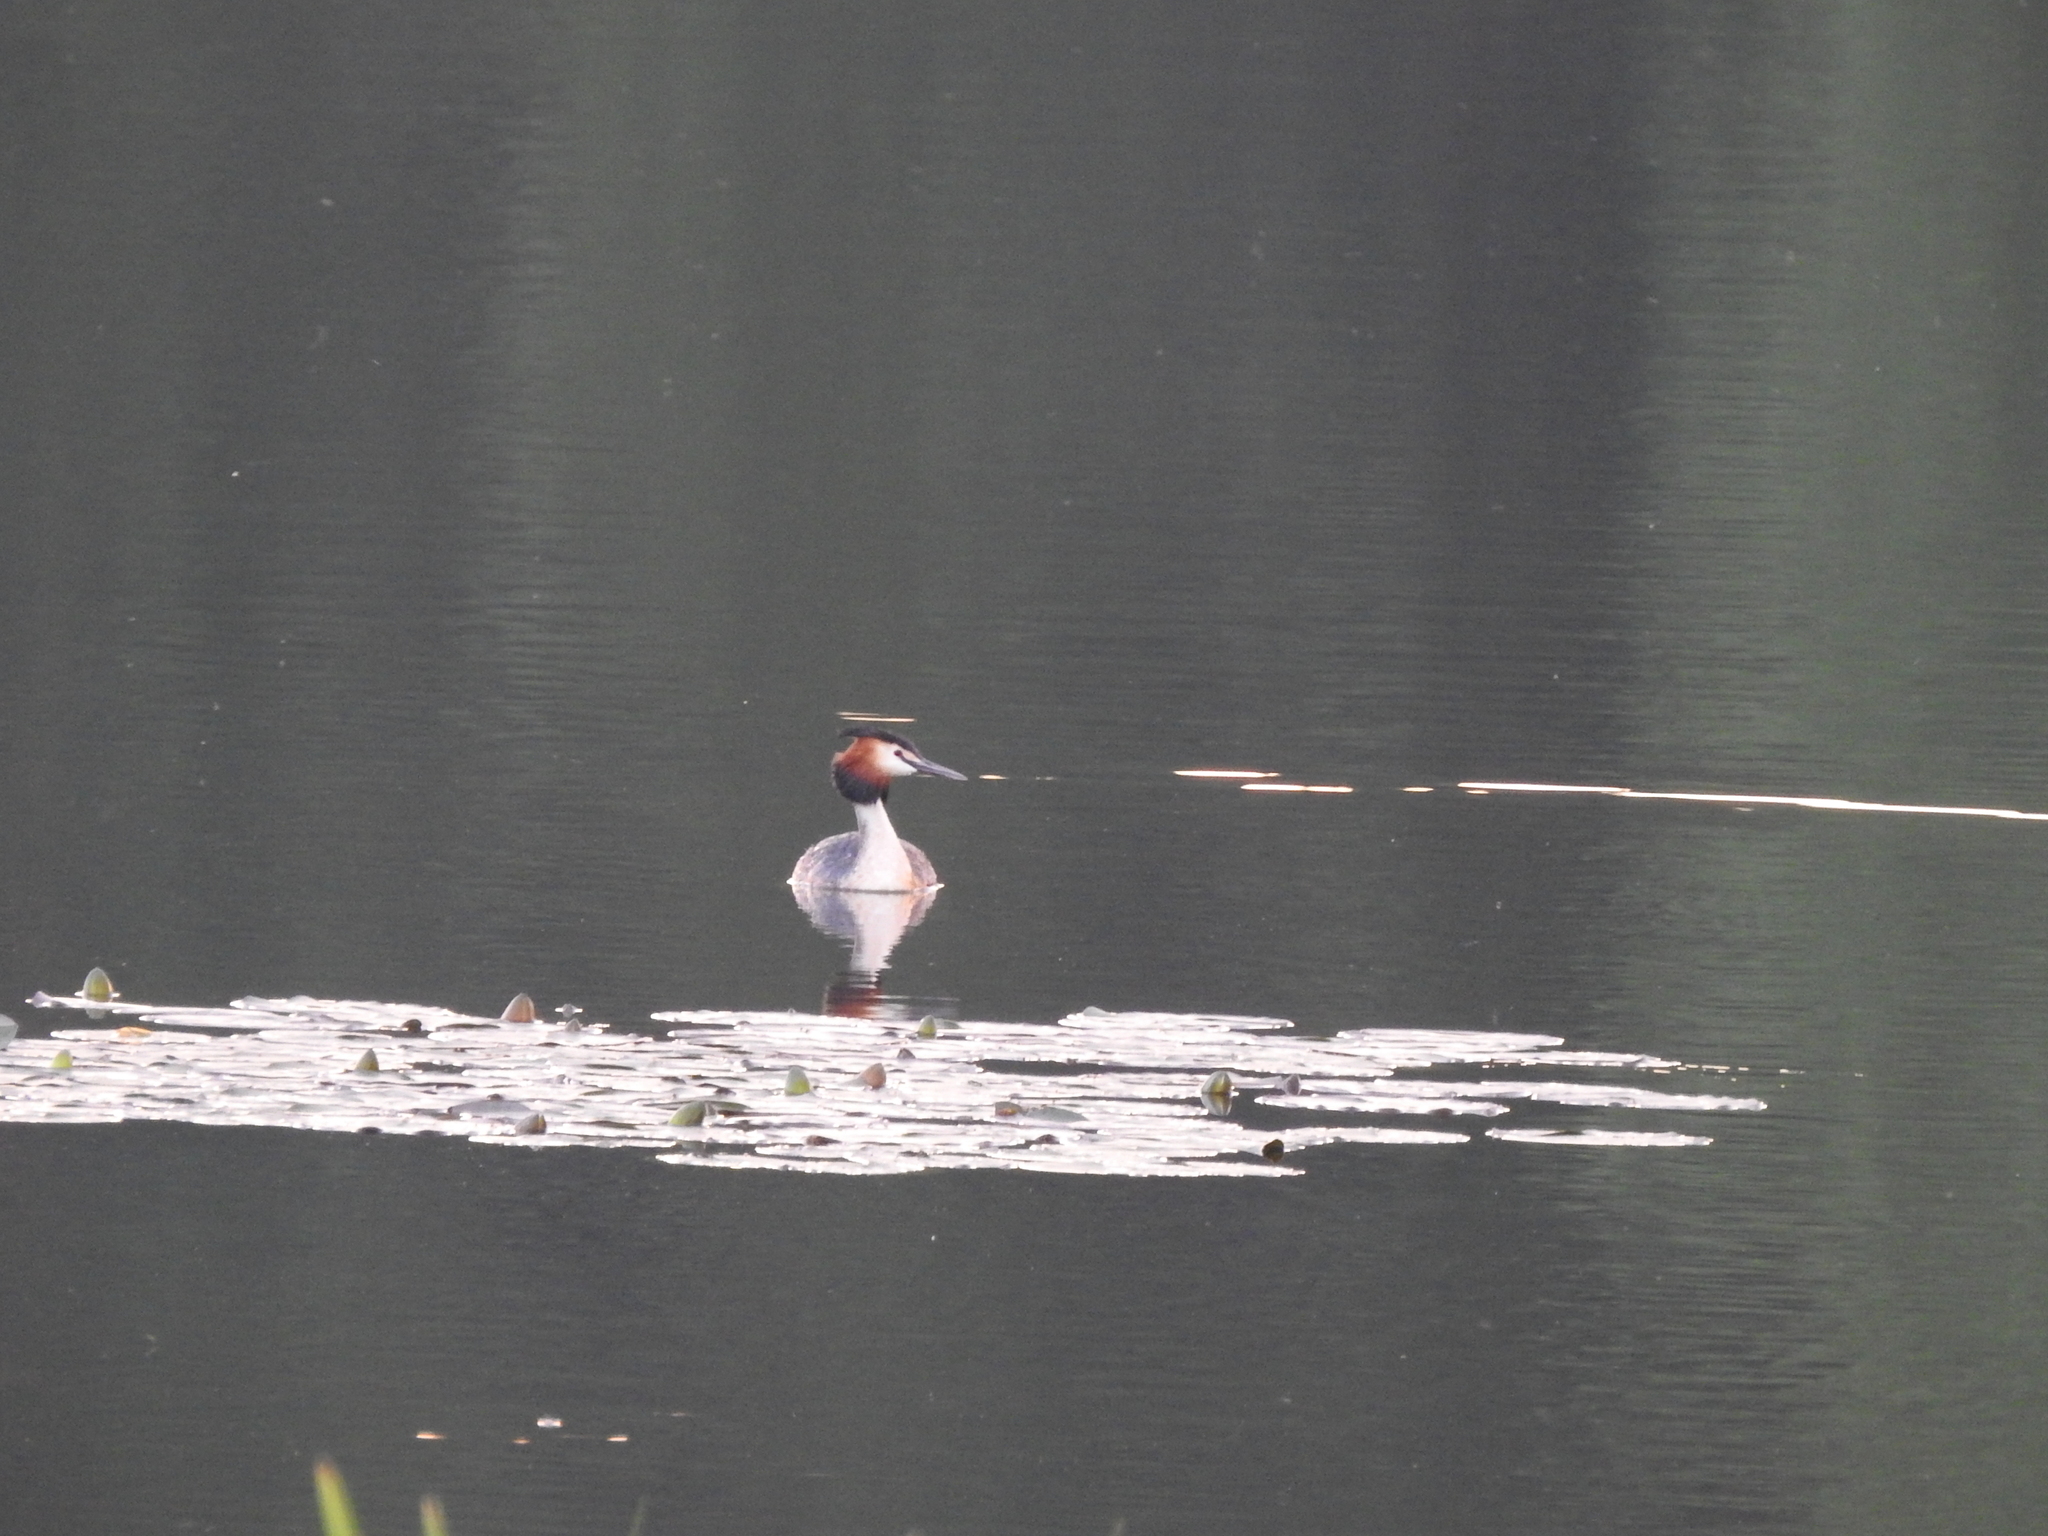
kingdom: Animalia
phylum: Chordata
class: Aves
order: Podicipediformes
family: Podicipedidae
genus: Podiceps
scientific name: Podiceps cristatus
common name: Great crested grebe
